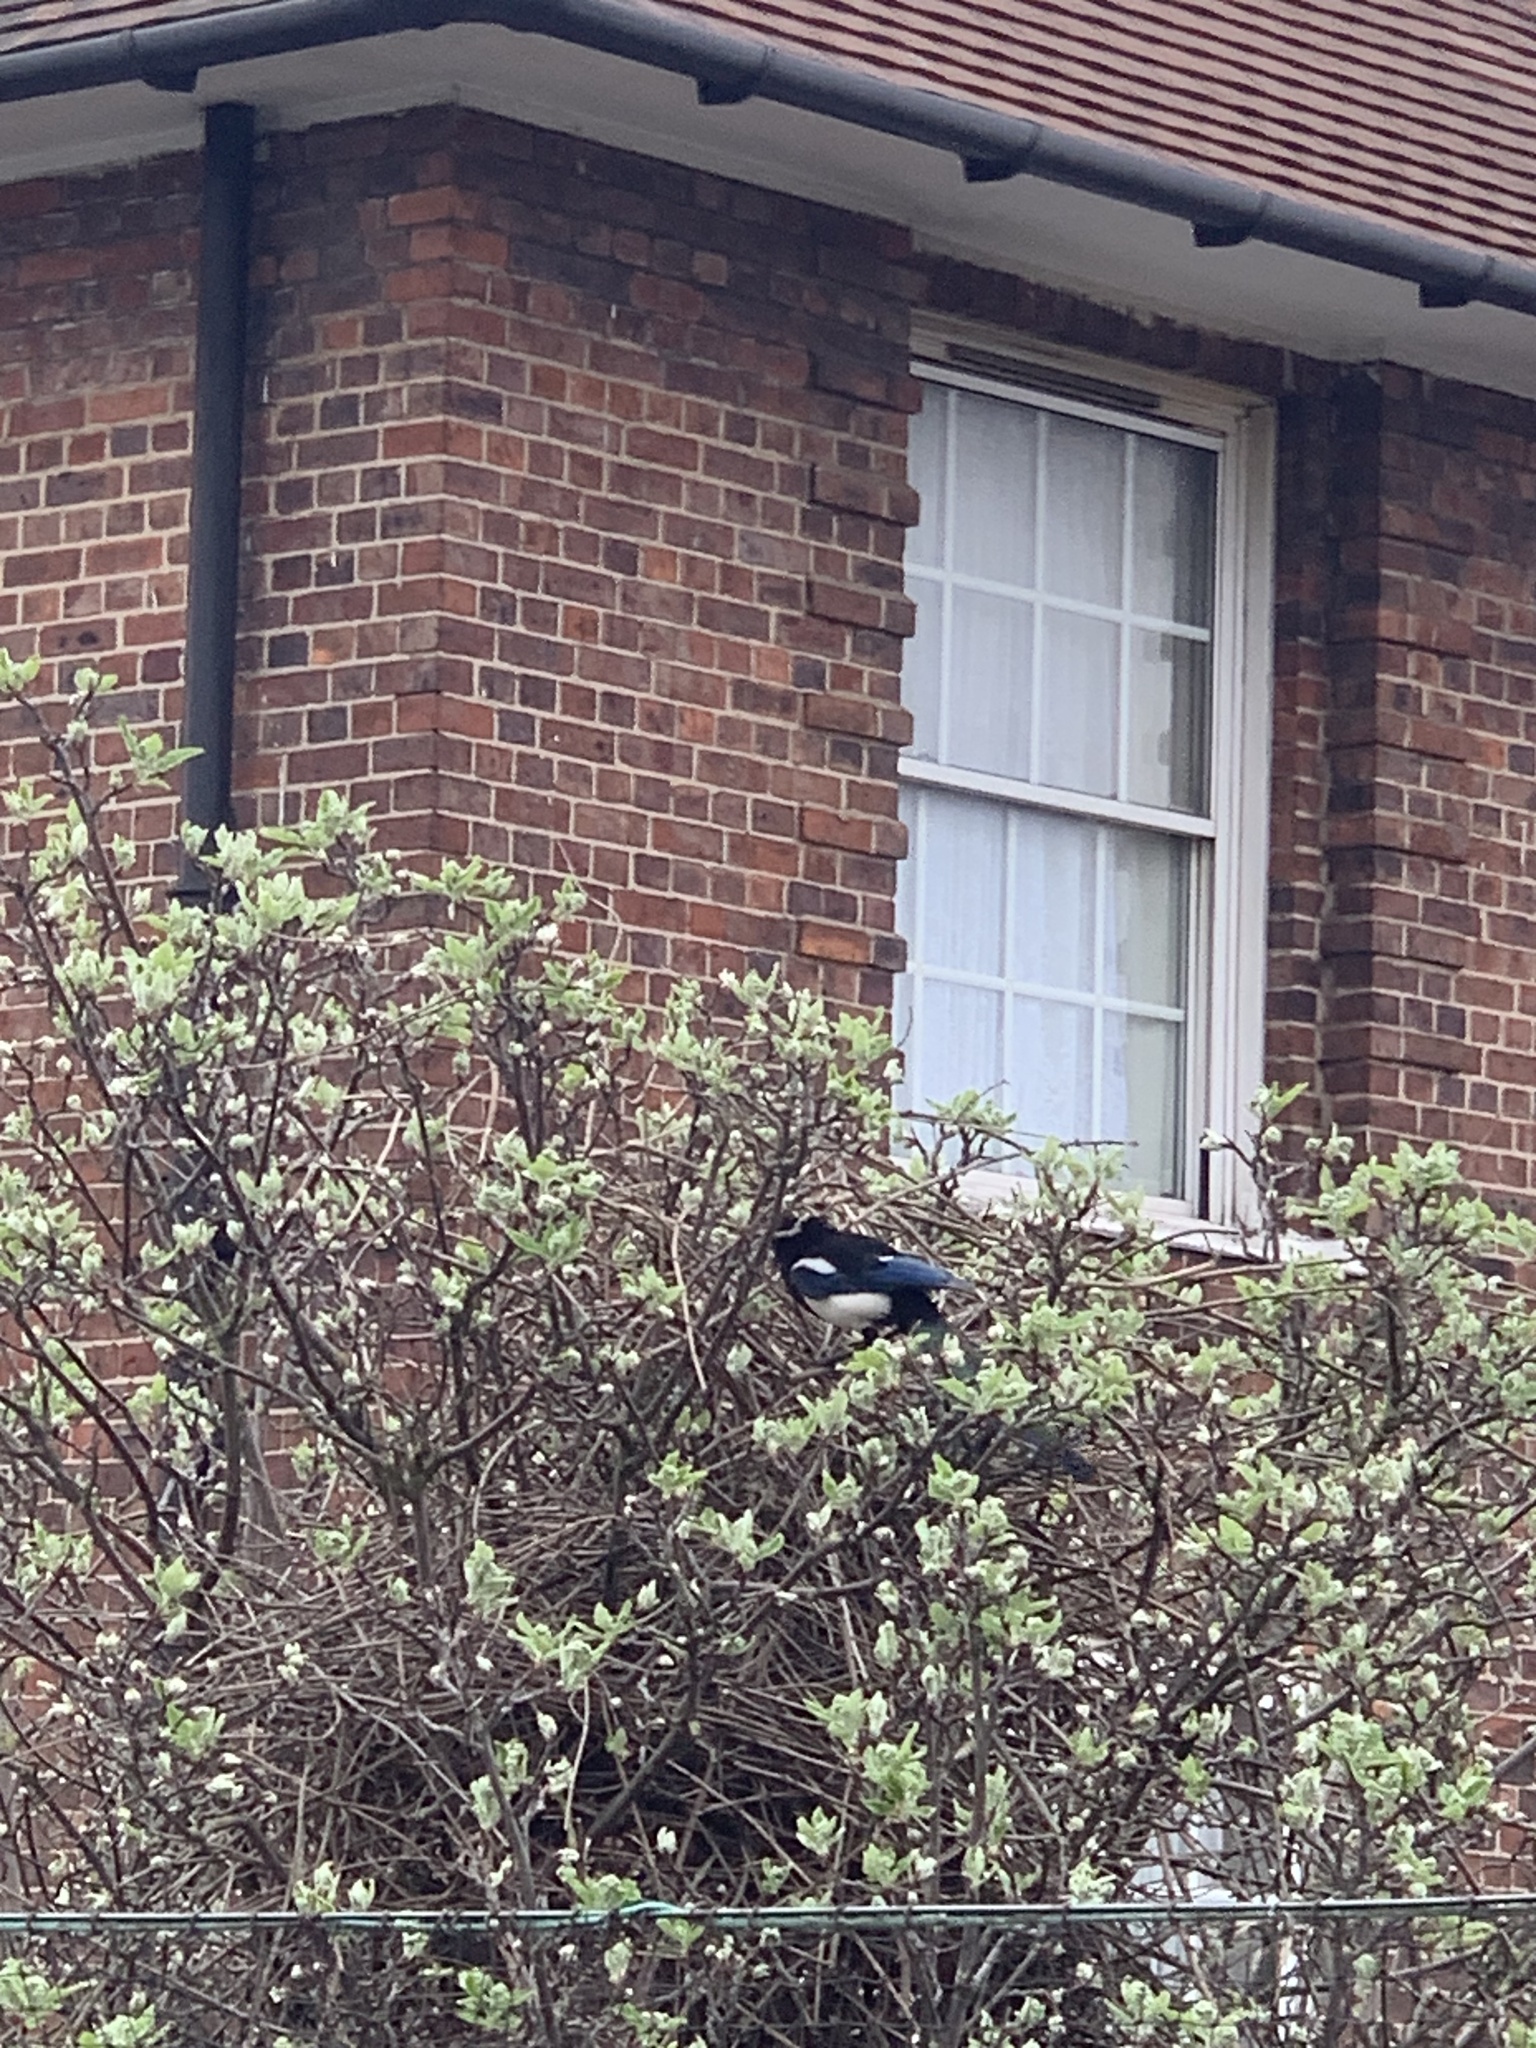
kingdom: Animalia
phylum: Chordata
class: Aves
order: Passeriformes
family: Corvidae
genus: Pica
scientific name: Pica pica
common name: Eurasian magpie
